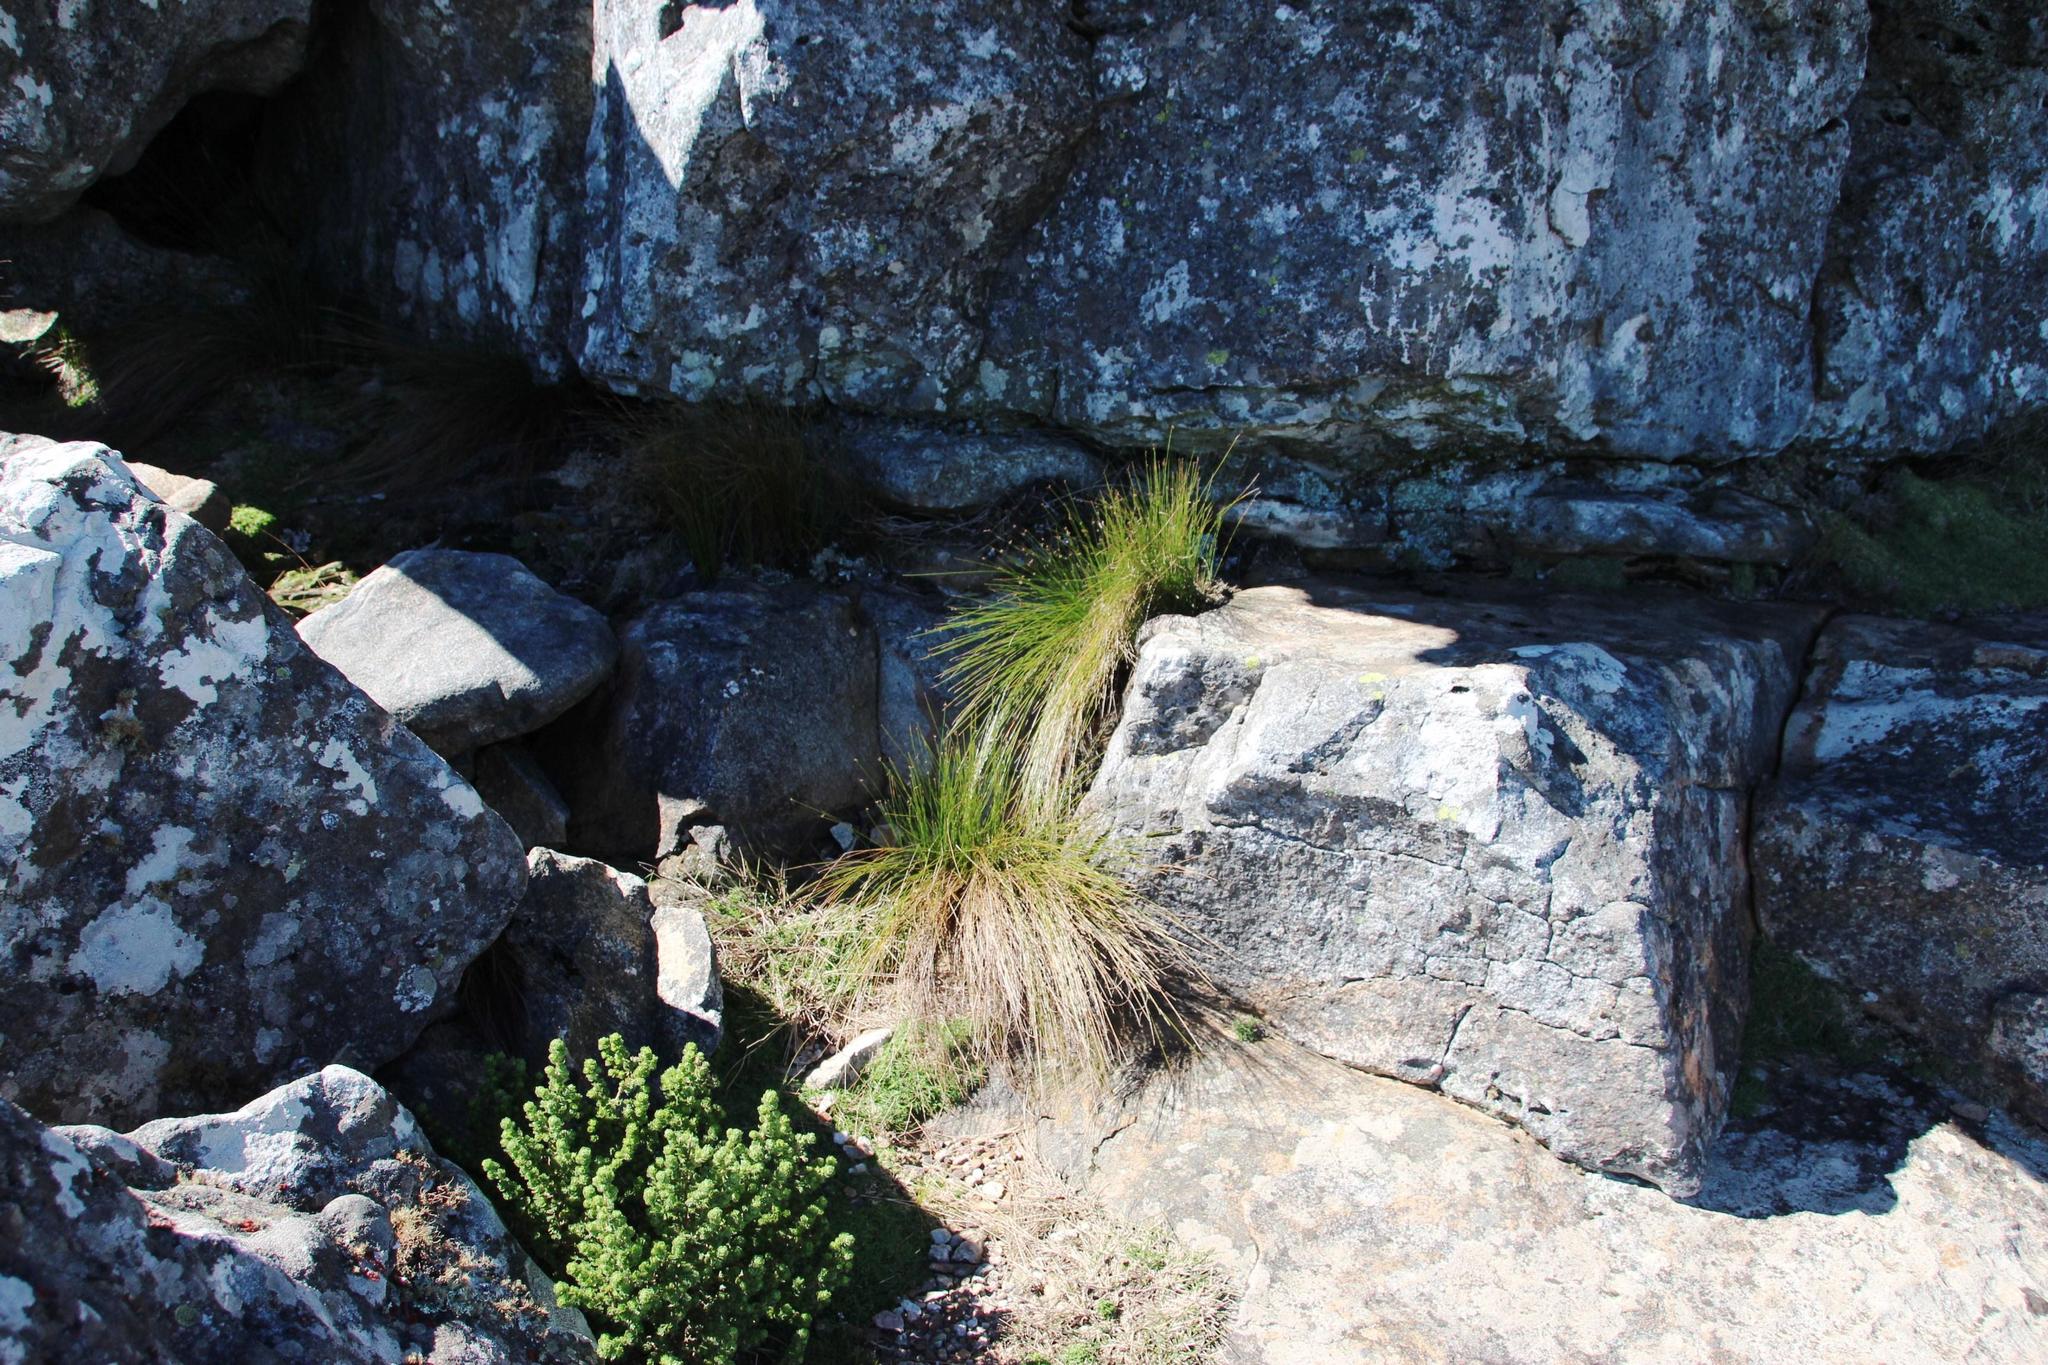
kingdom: Plantae
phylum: Tracheophyta
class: Liliopsida
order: Poales
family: Cyperaceae
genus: Ficinia
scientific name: Ficinia acuminata
